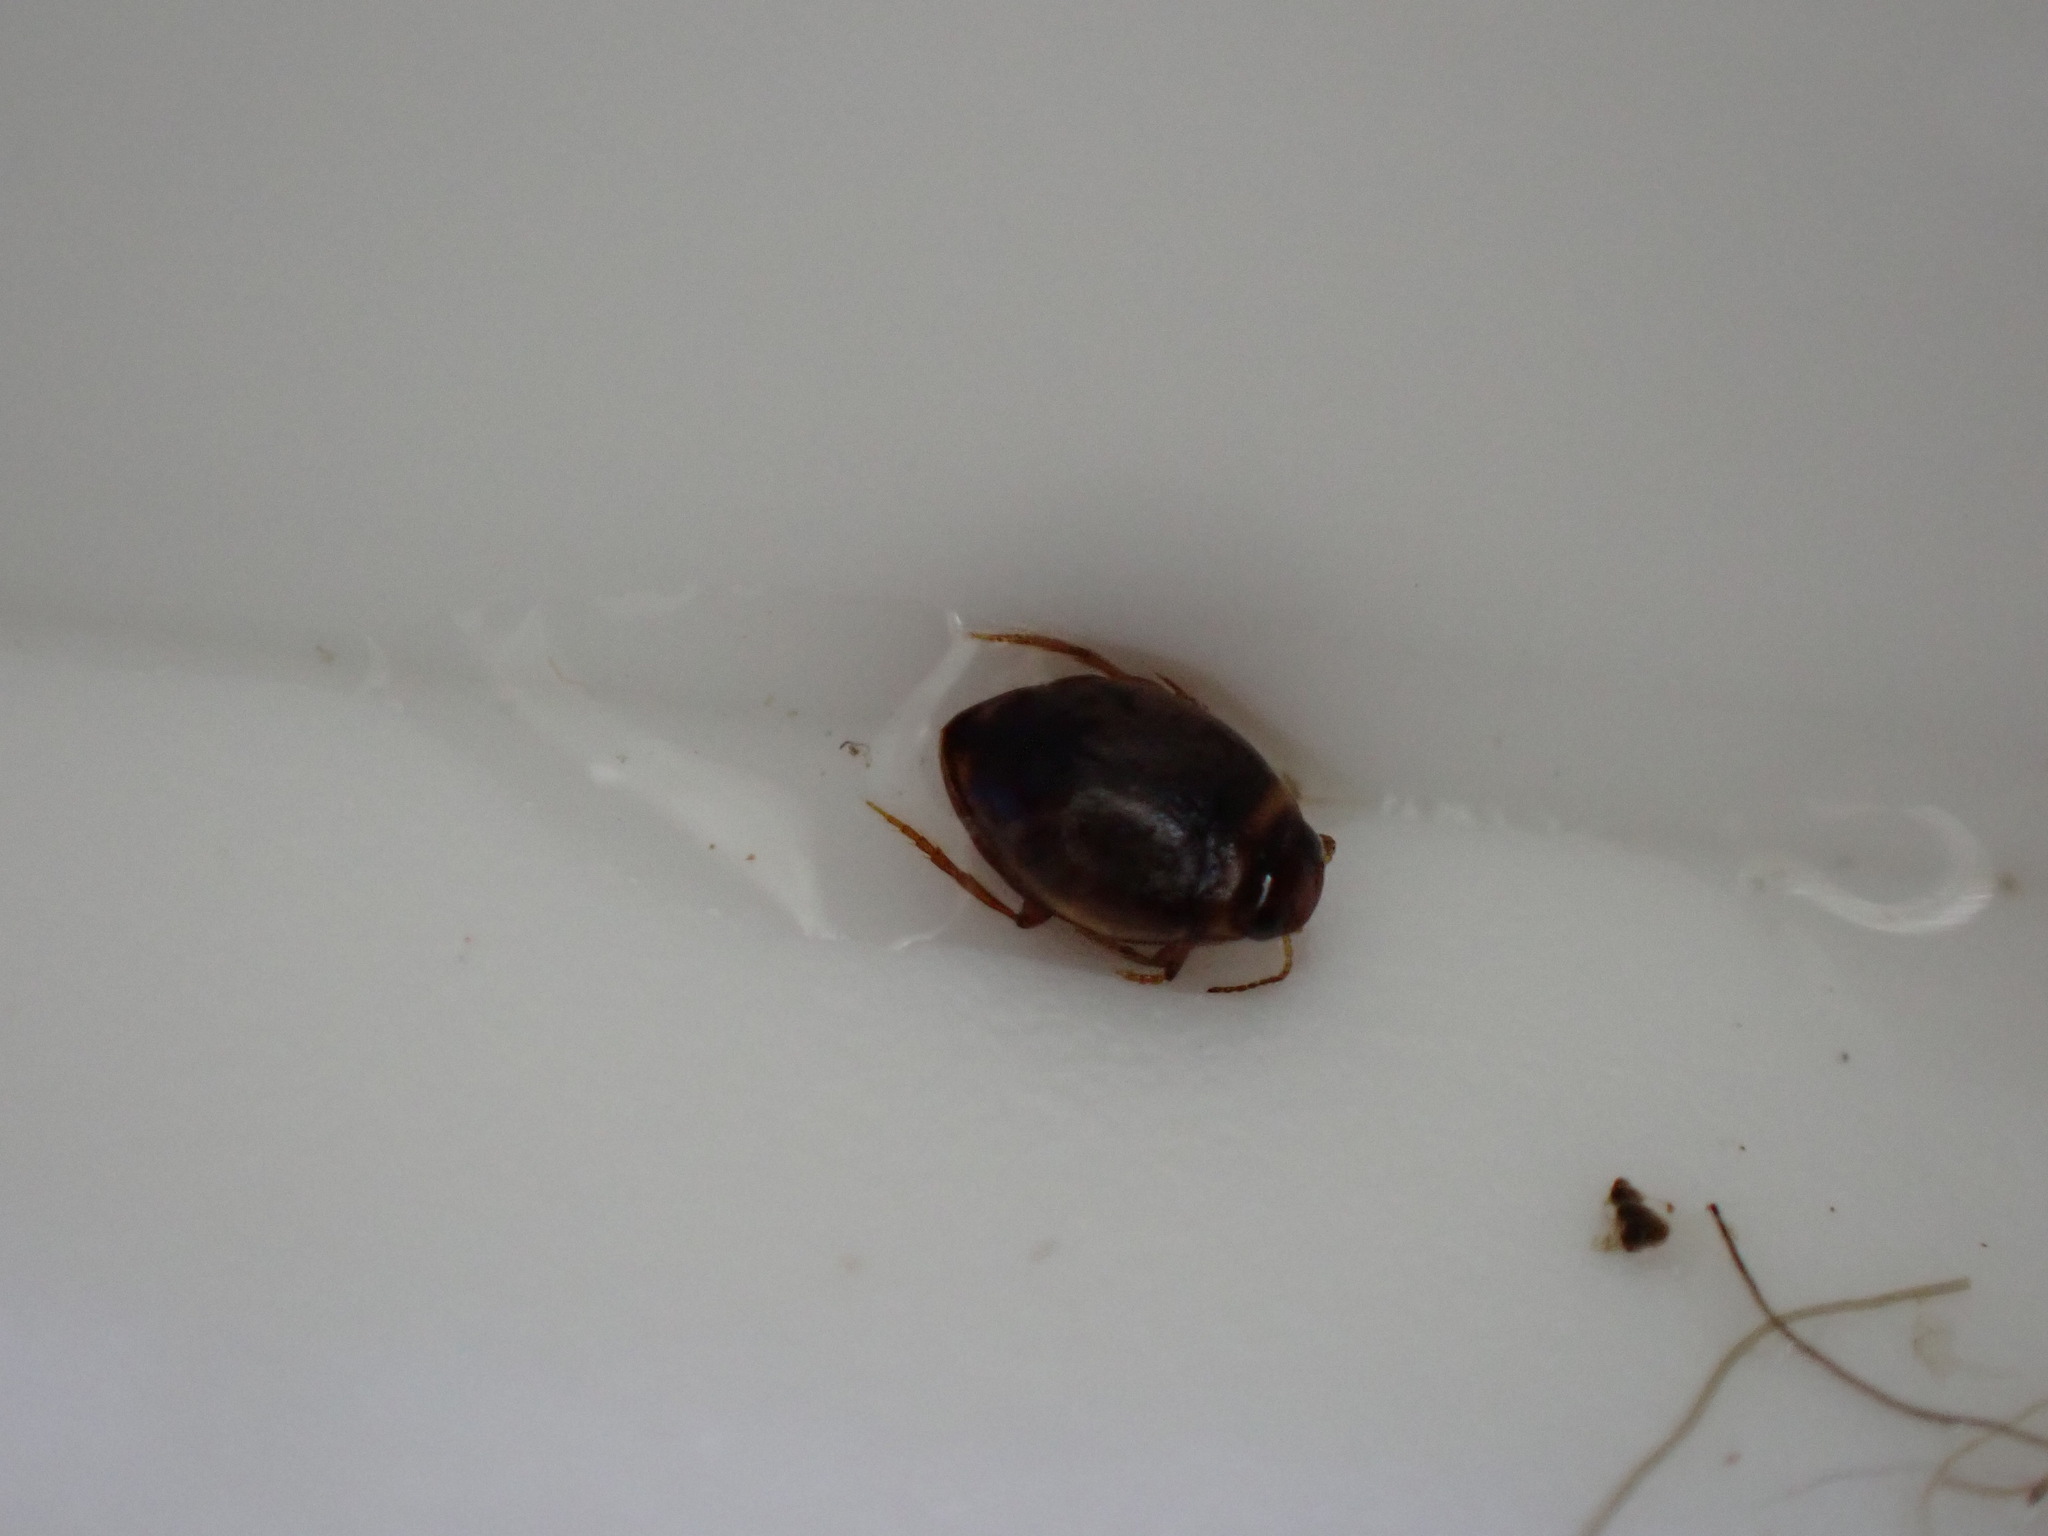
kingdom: Animalia
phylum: Arthropoda
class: Insecta
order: Coleoptera
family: Dytiscidae
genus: Hygrotus
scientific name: Hygrotus sayi
